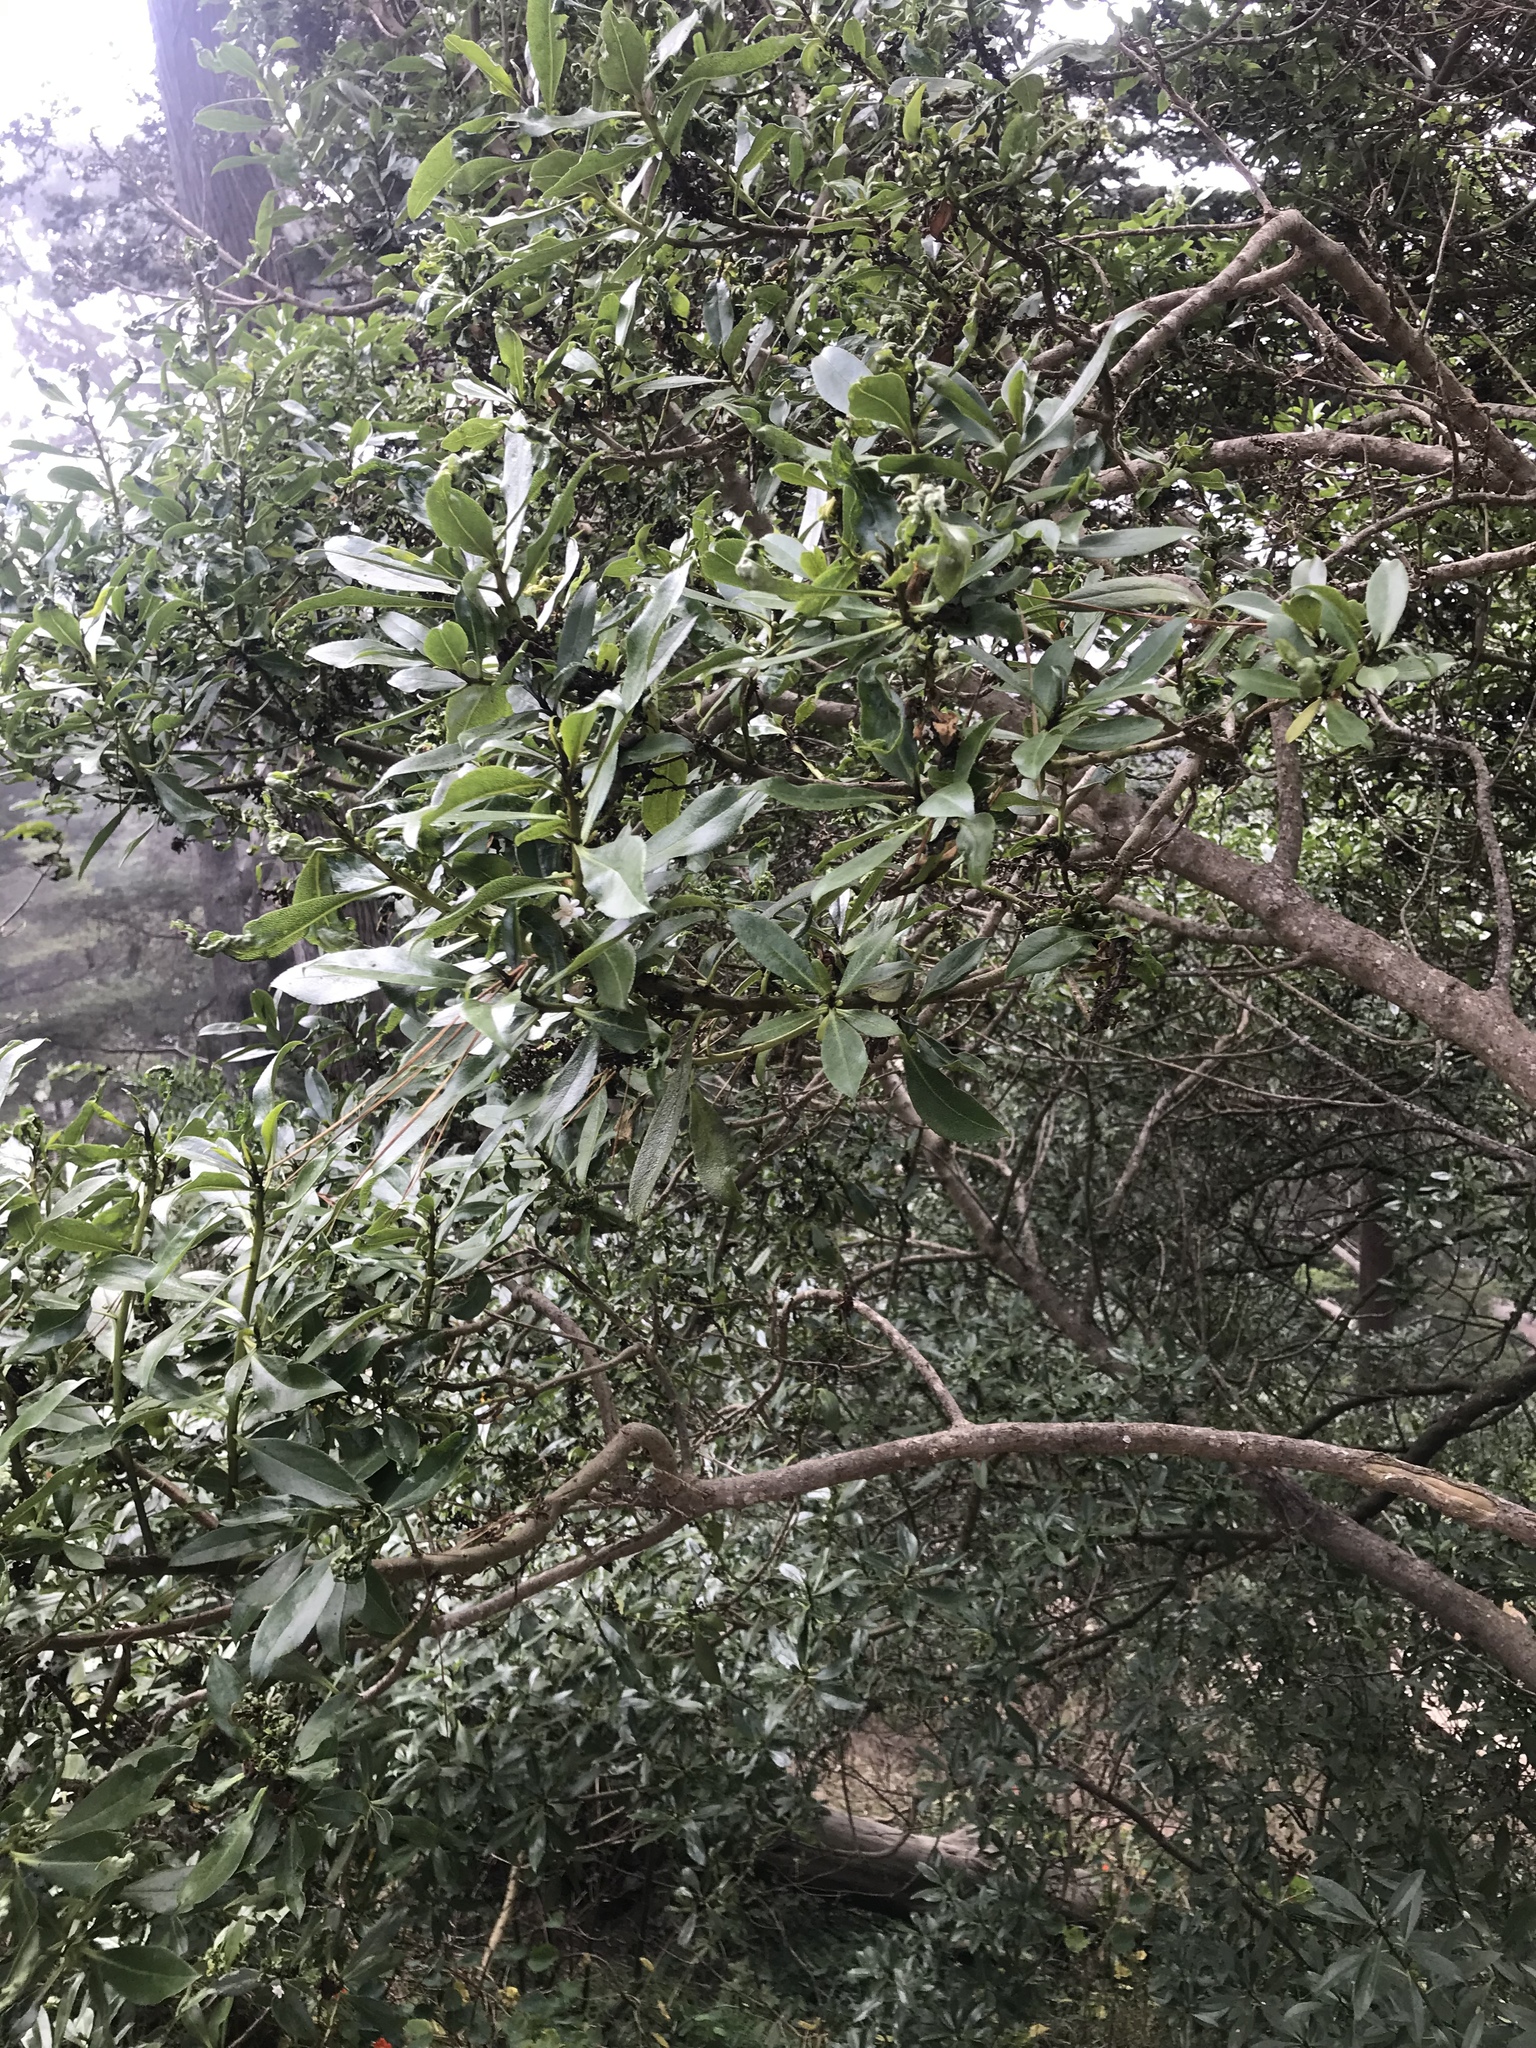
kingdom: Plantae
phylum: Tracheophyta
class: Magnoliopsida
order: Lamiales
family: Scrophulariaceae
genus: Myoporum
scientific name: Myoporum laetum
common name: Ngaio tree
